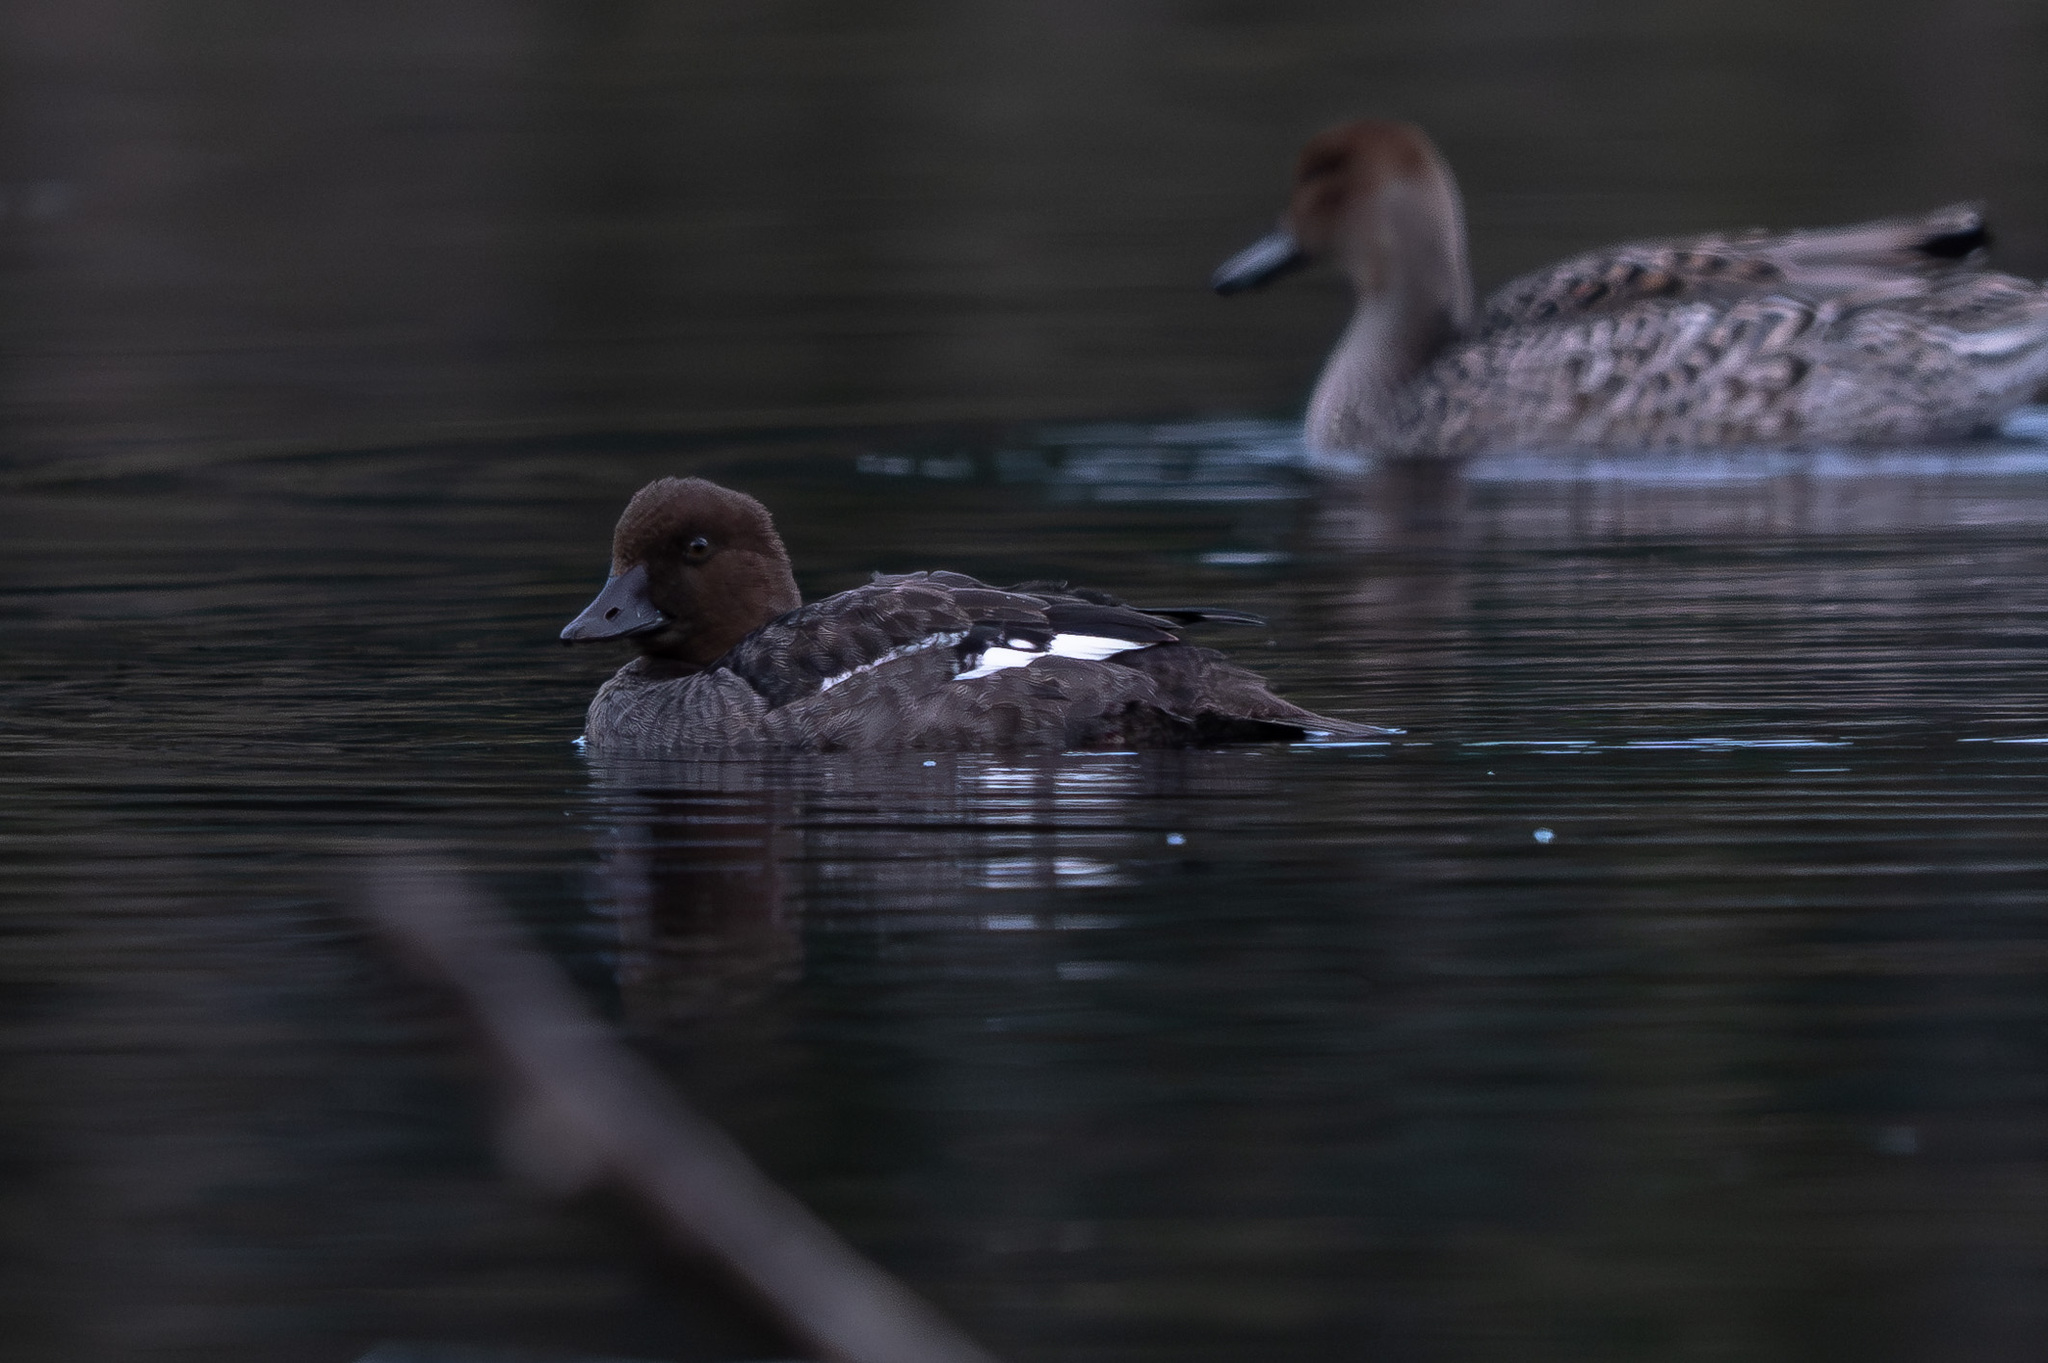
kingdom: Animalia
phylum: Chordata
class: Aves
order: Anseriformes
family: Anatidae
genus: Bucephala
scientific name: Bucephala clangula
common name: Common goldeneye
